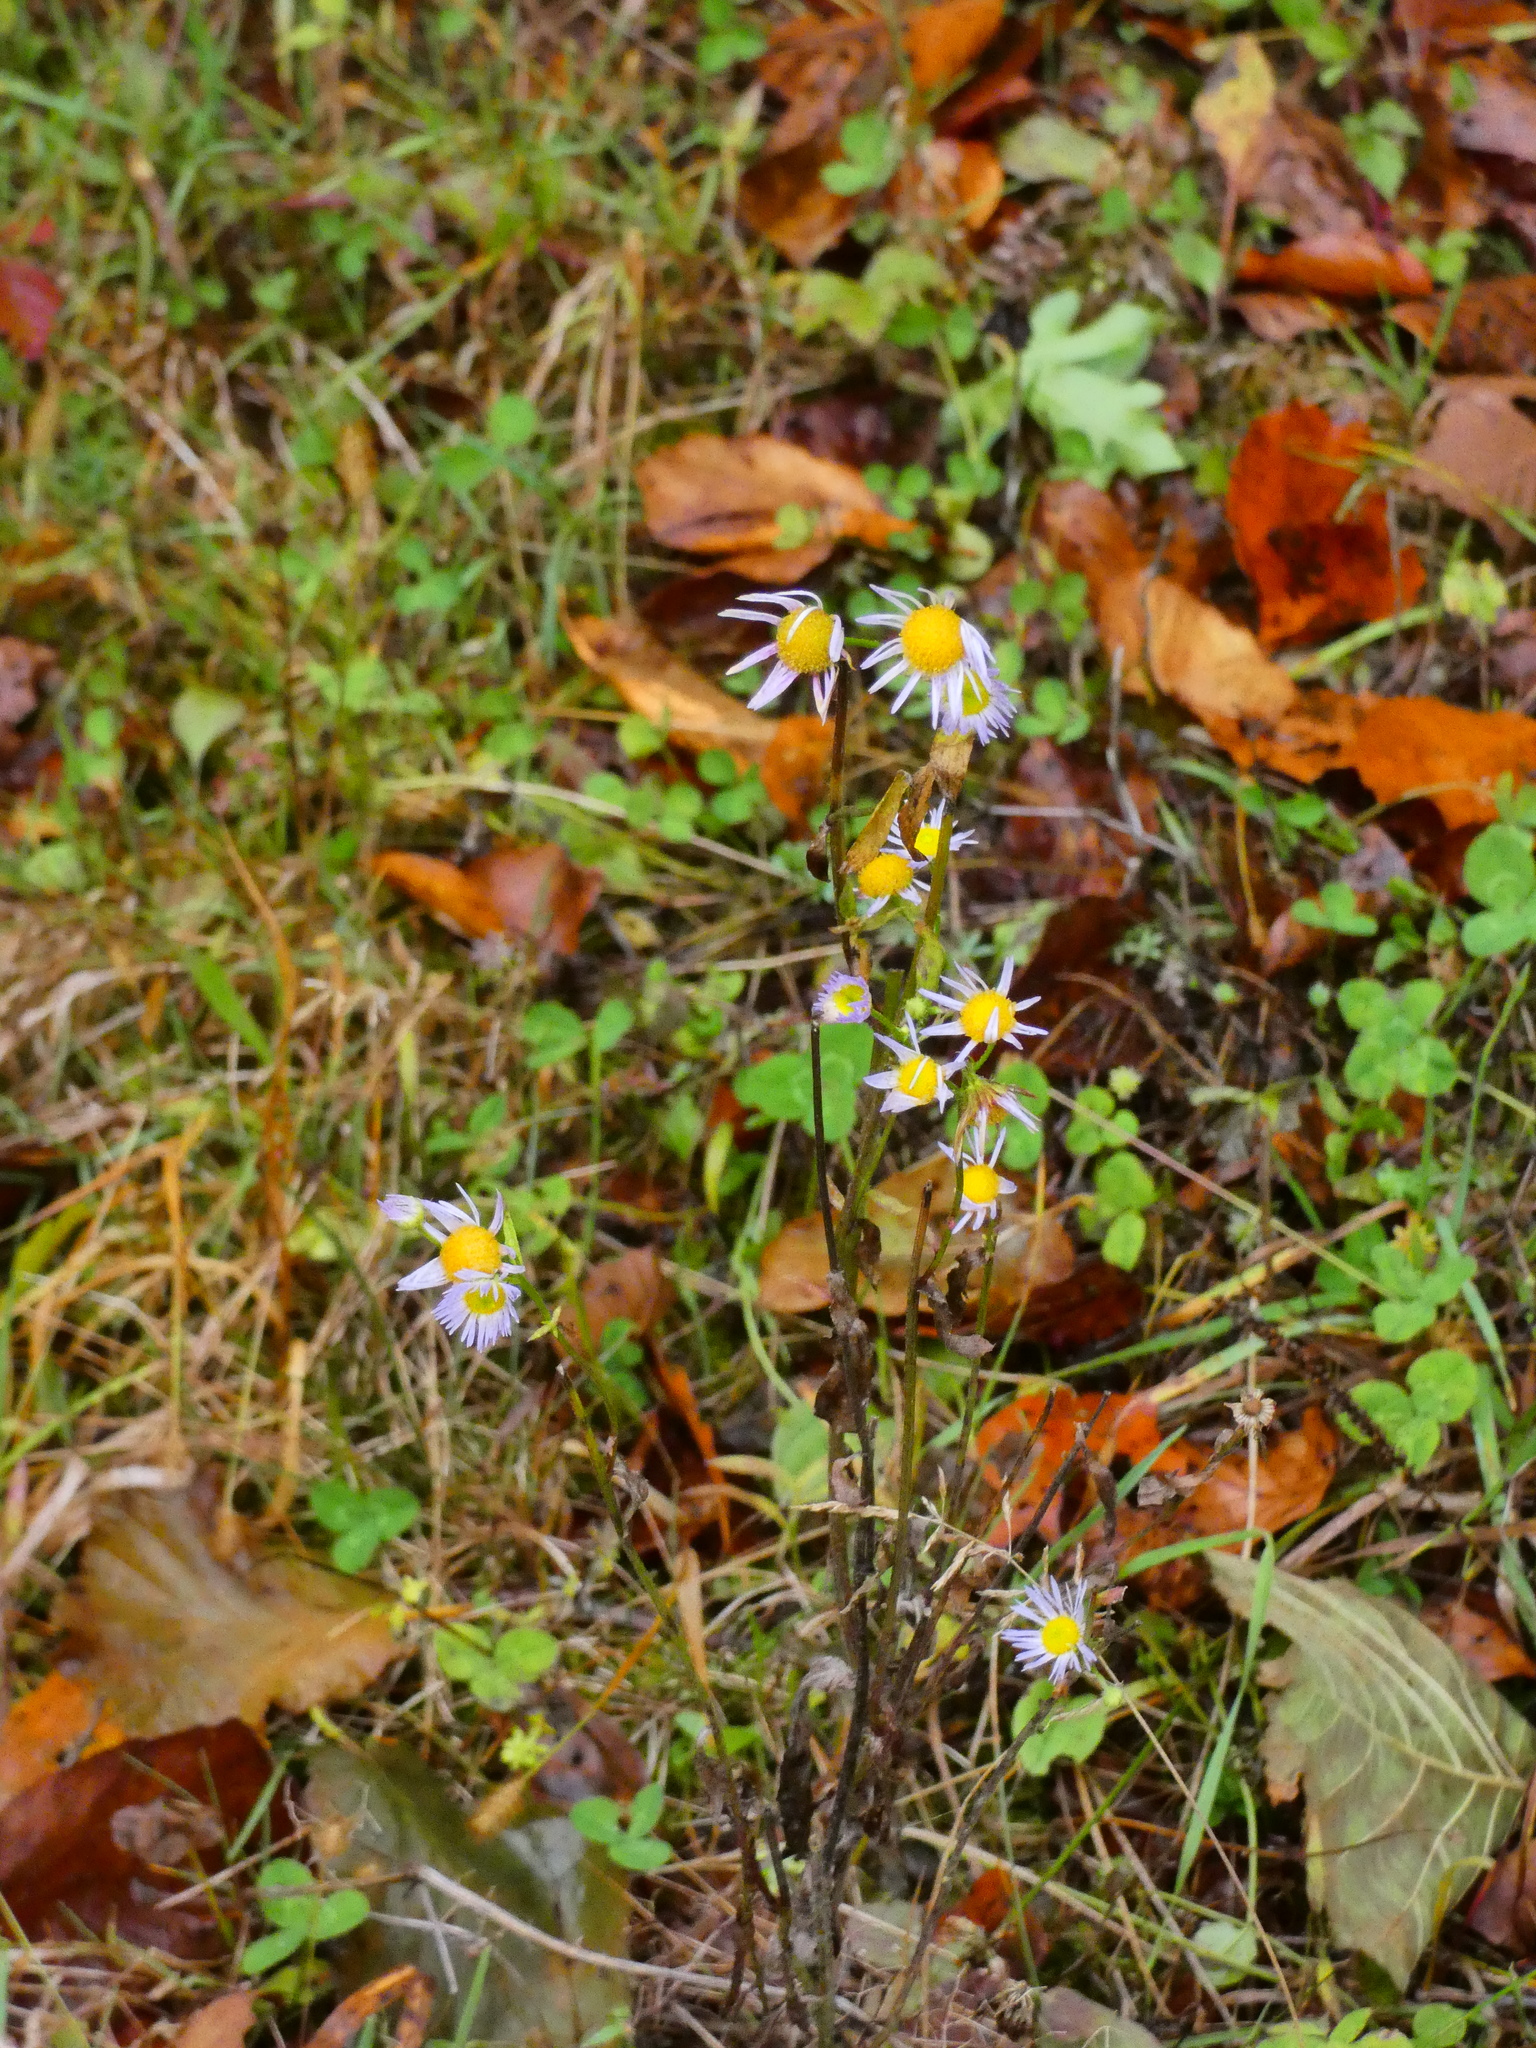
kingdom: Plantae
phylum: Tracheophyta
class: Magnoliopsida
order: Asterales
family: Asteraceae
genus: Erigeron
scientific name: Erigeron annuus
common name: Tall fleabane
